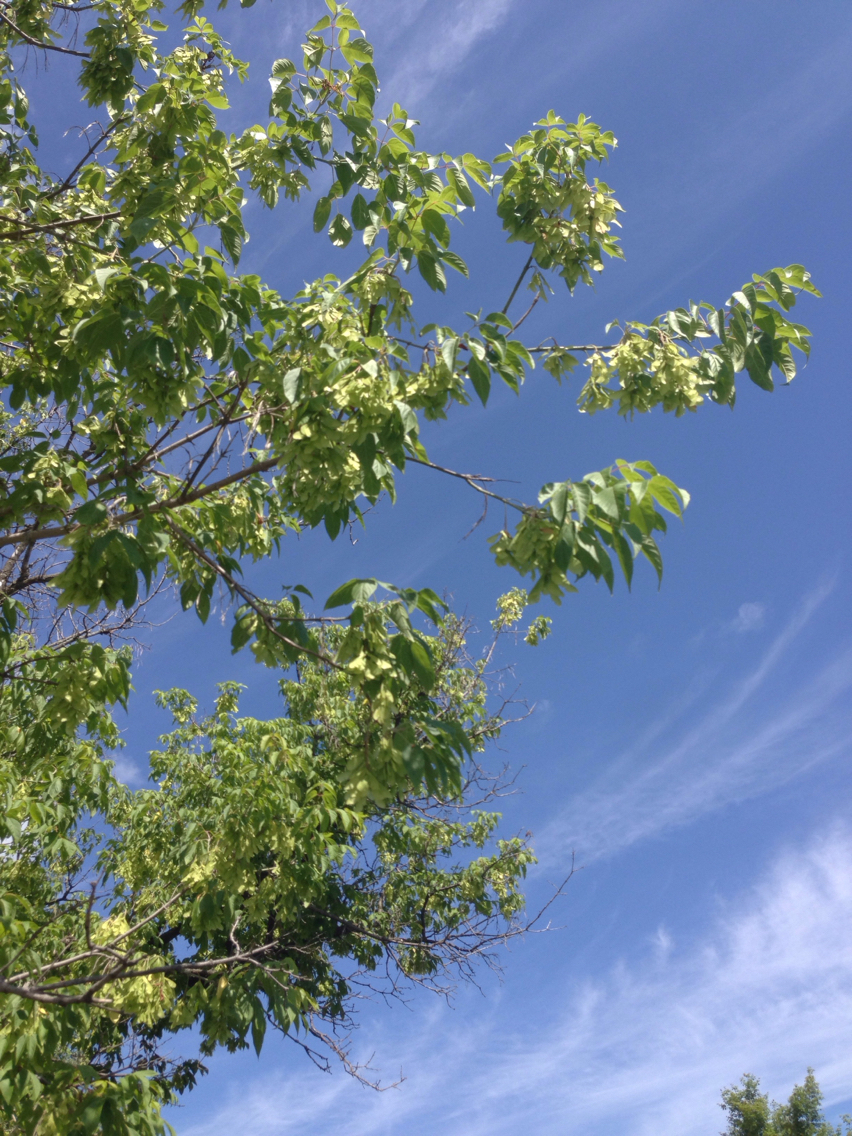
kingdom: Plantae
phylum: Tracheophyta
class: Magnoliopsida
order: Sapindales
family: Sapindaceae
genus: Acer
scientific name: Acer negundo
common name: Ashleaf maple
